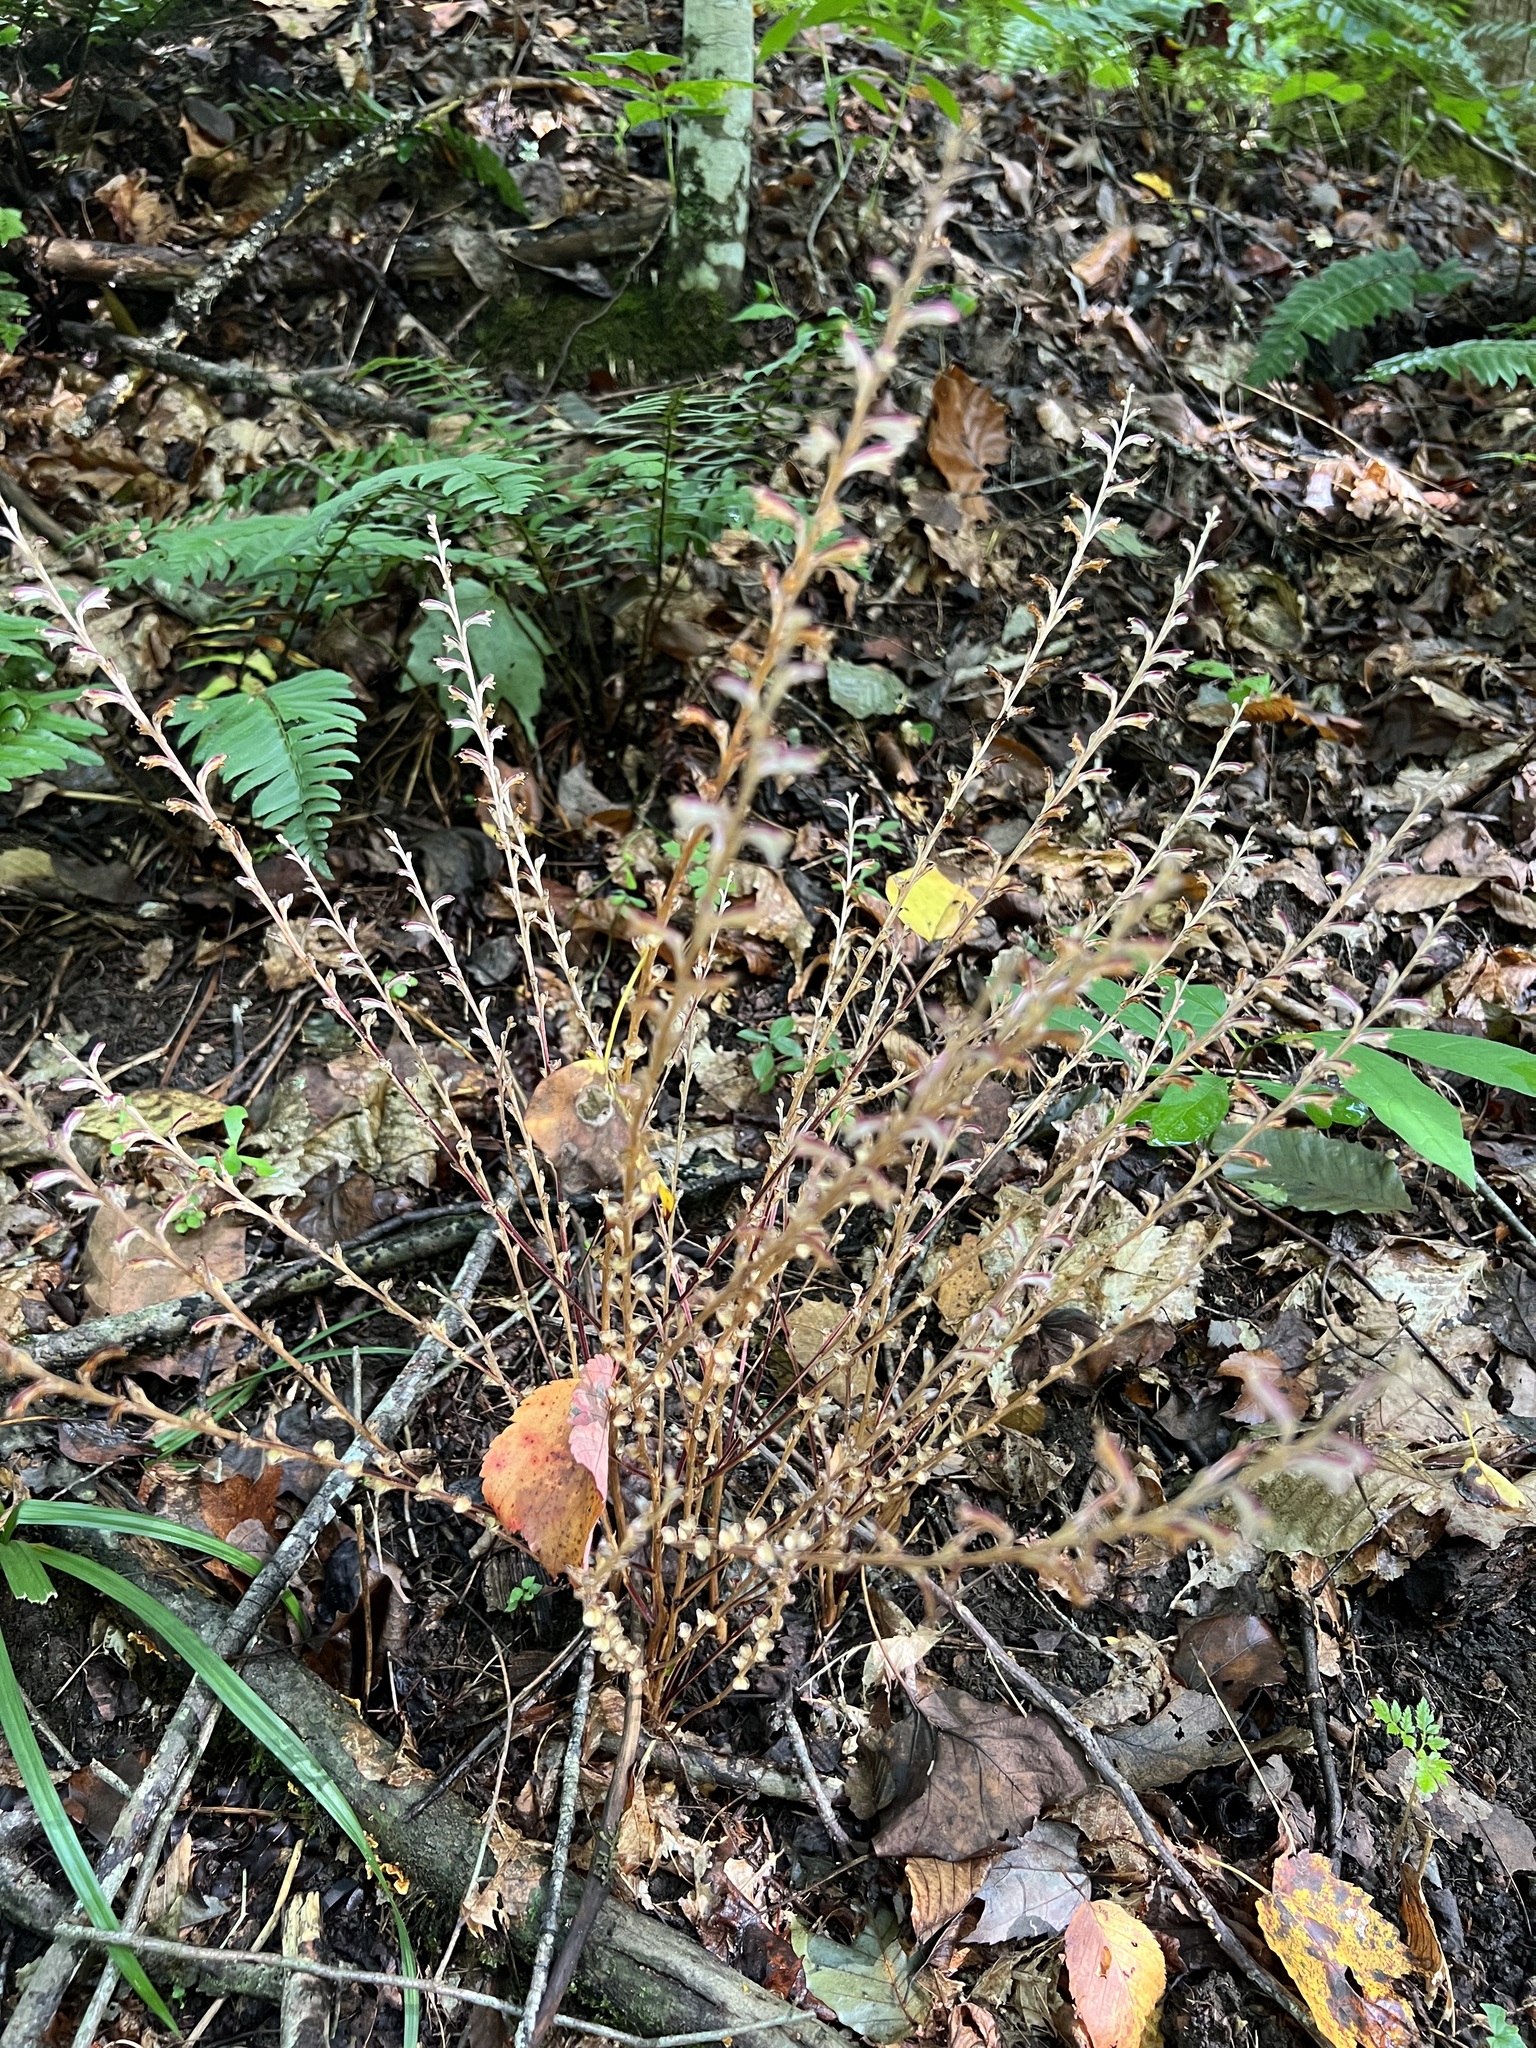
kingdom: Plantae
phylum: Tracheophyta
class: Magnoliopsida
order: Lamiales
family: Orobanchaceae
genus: Epifagus
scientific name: Epifagus virginiana
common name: Beechdrops
